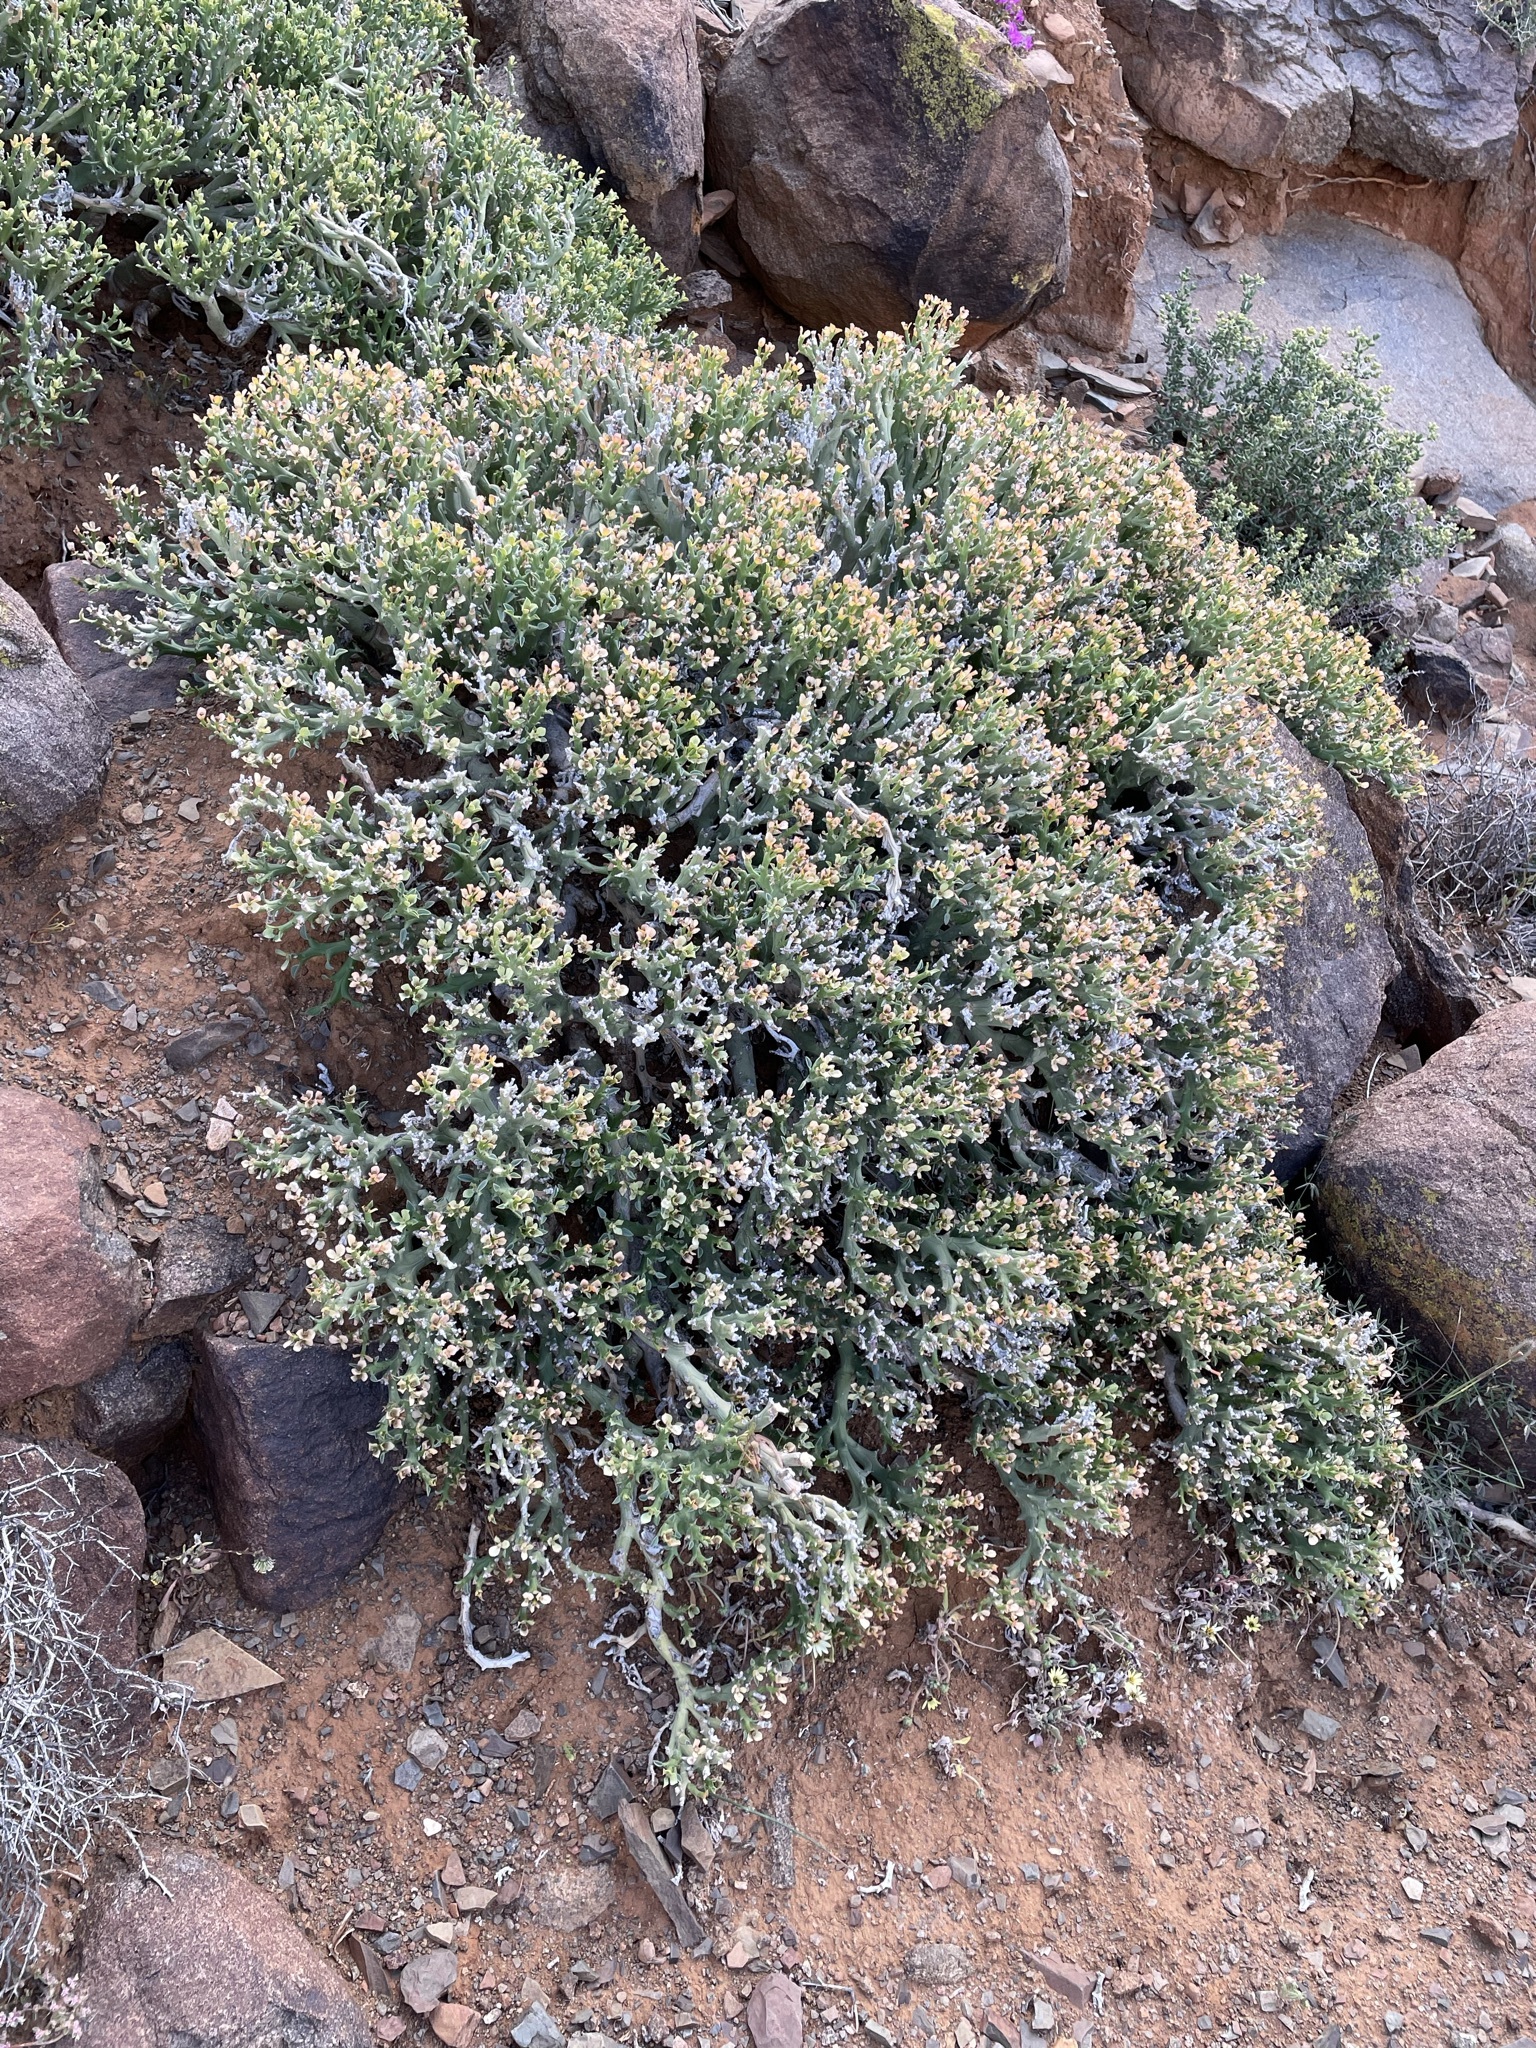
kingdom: Plantae
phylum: Tracheophyta
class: Magnoliopsida
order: Malpighiales
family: Euphorbiaceae
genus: Euphorbia
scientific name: Euphorbia hamata
